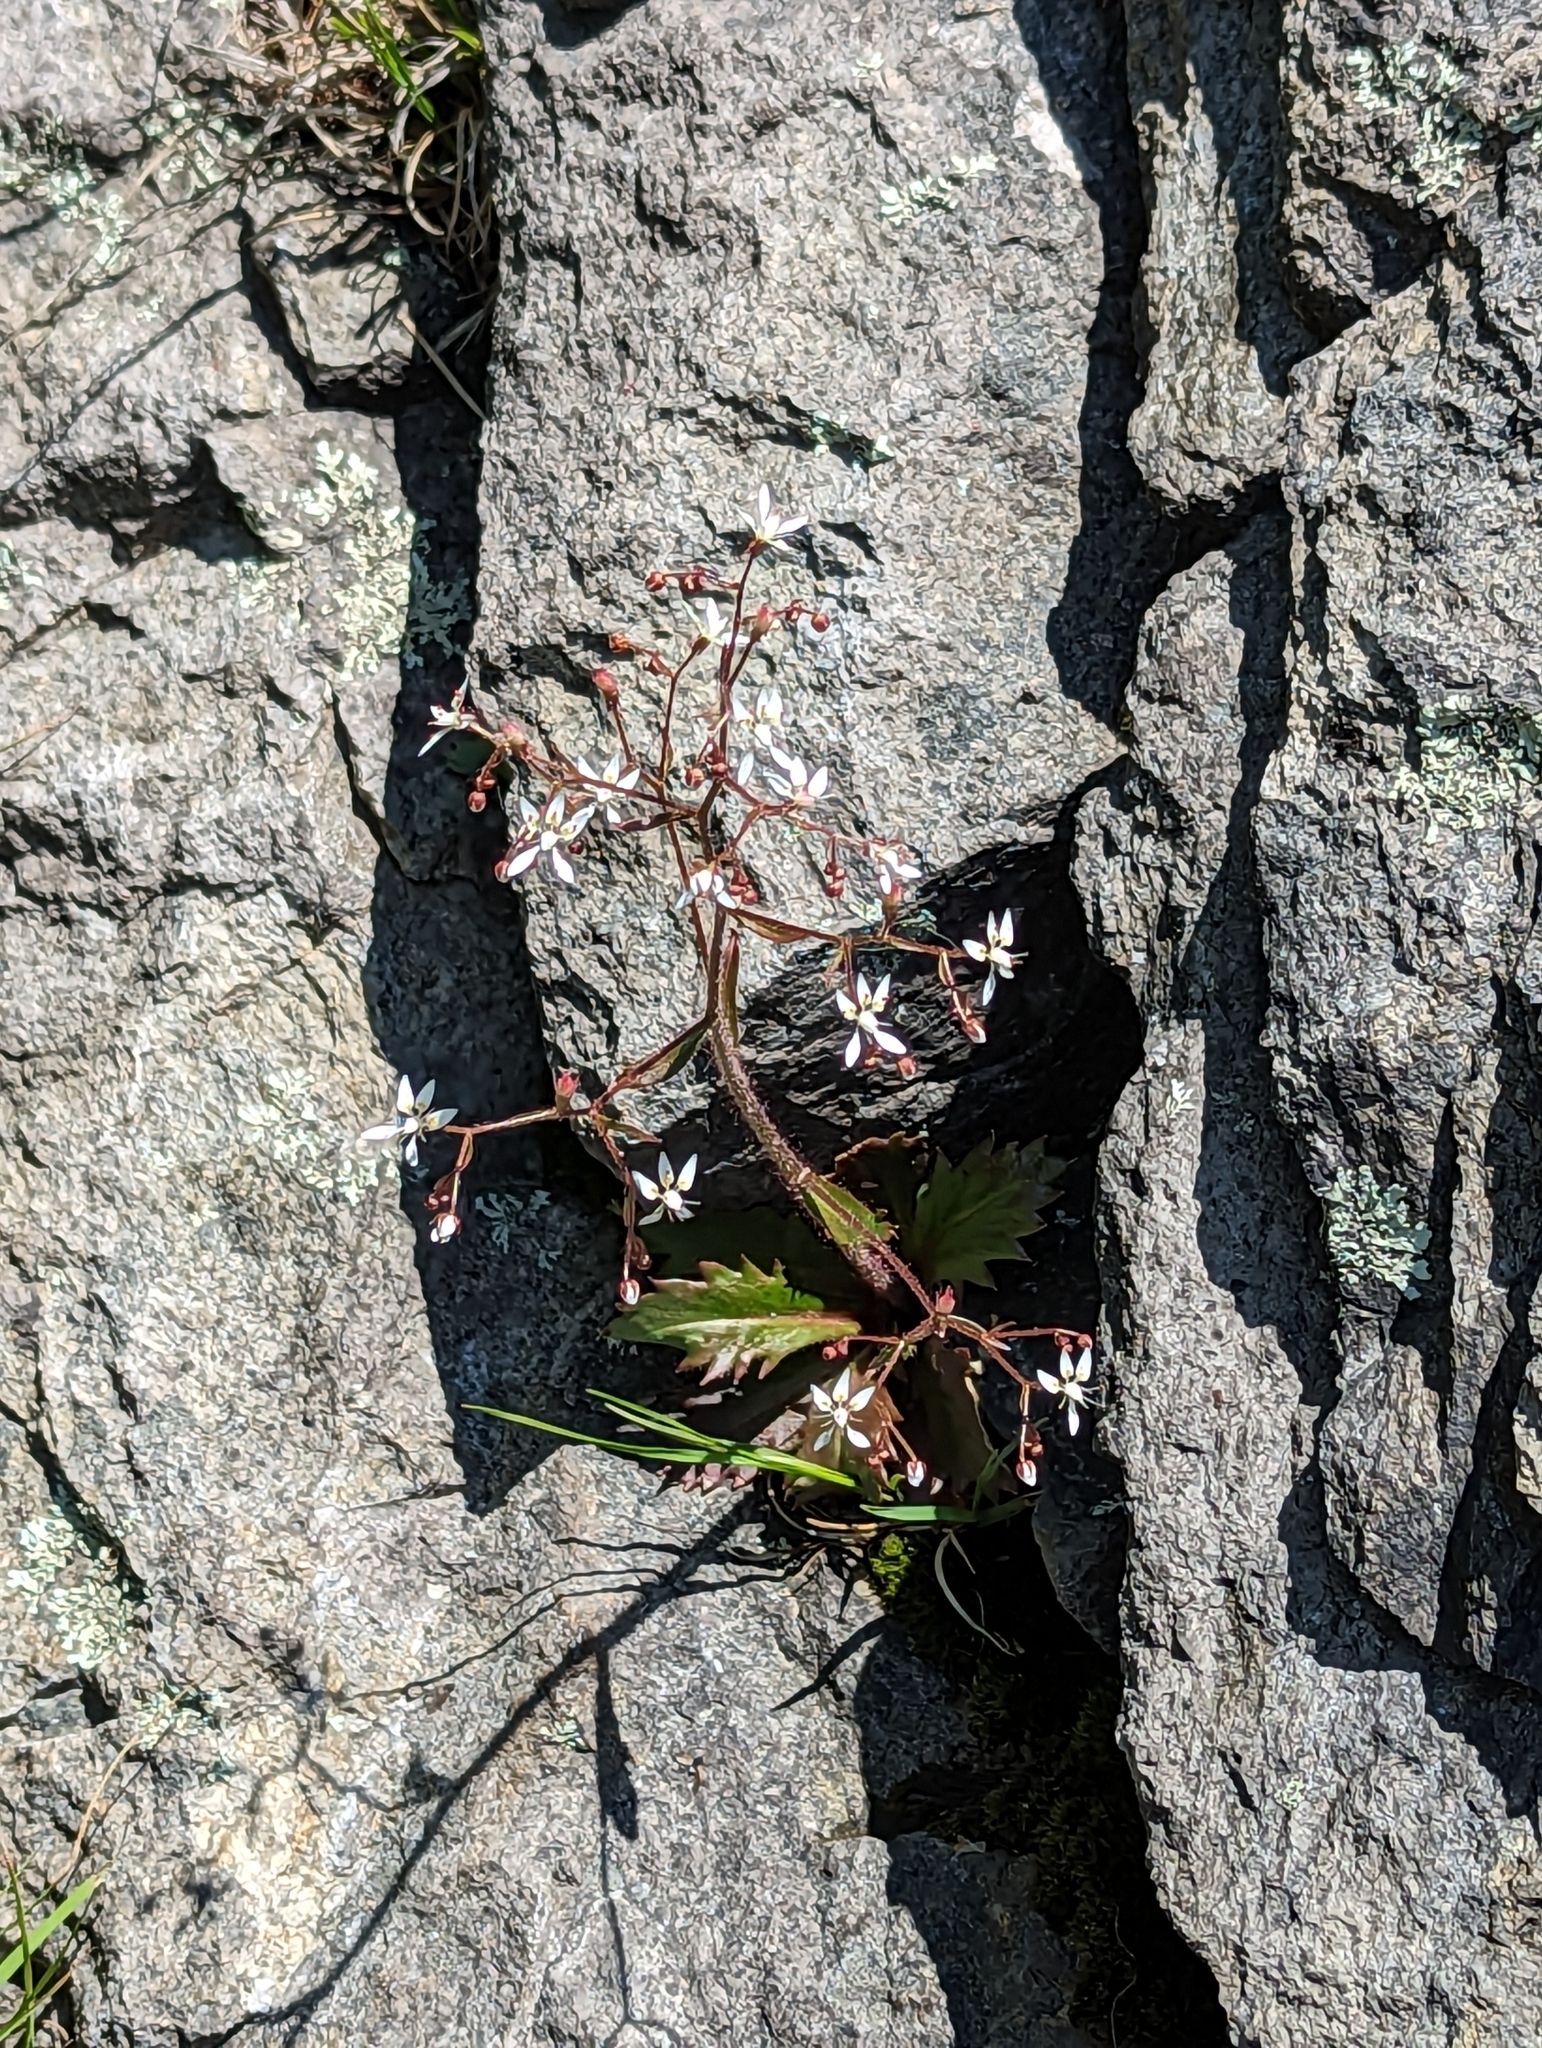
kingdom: Plantae
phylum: Tracheophyta
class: Magnoliopsida
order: Saxifragales
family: Saxifragaceae
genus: Micranthes
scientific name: Micranthes petiolaris
